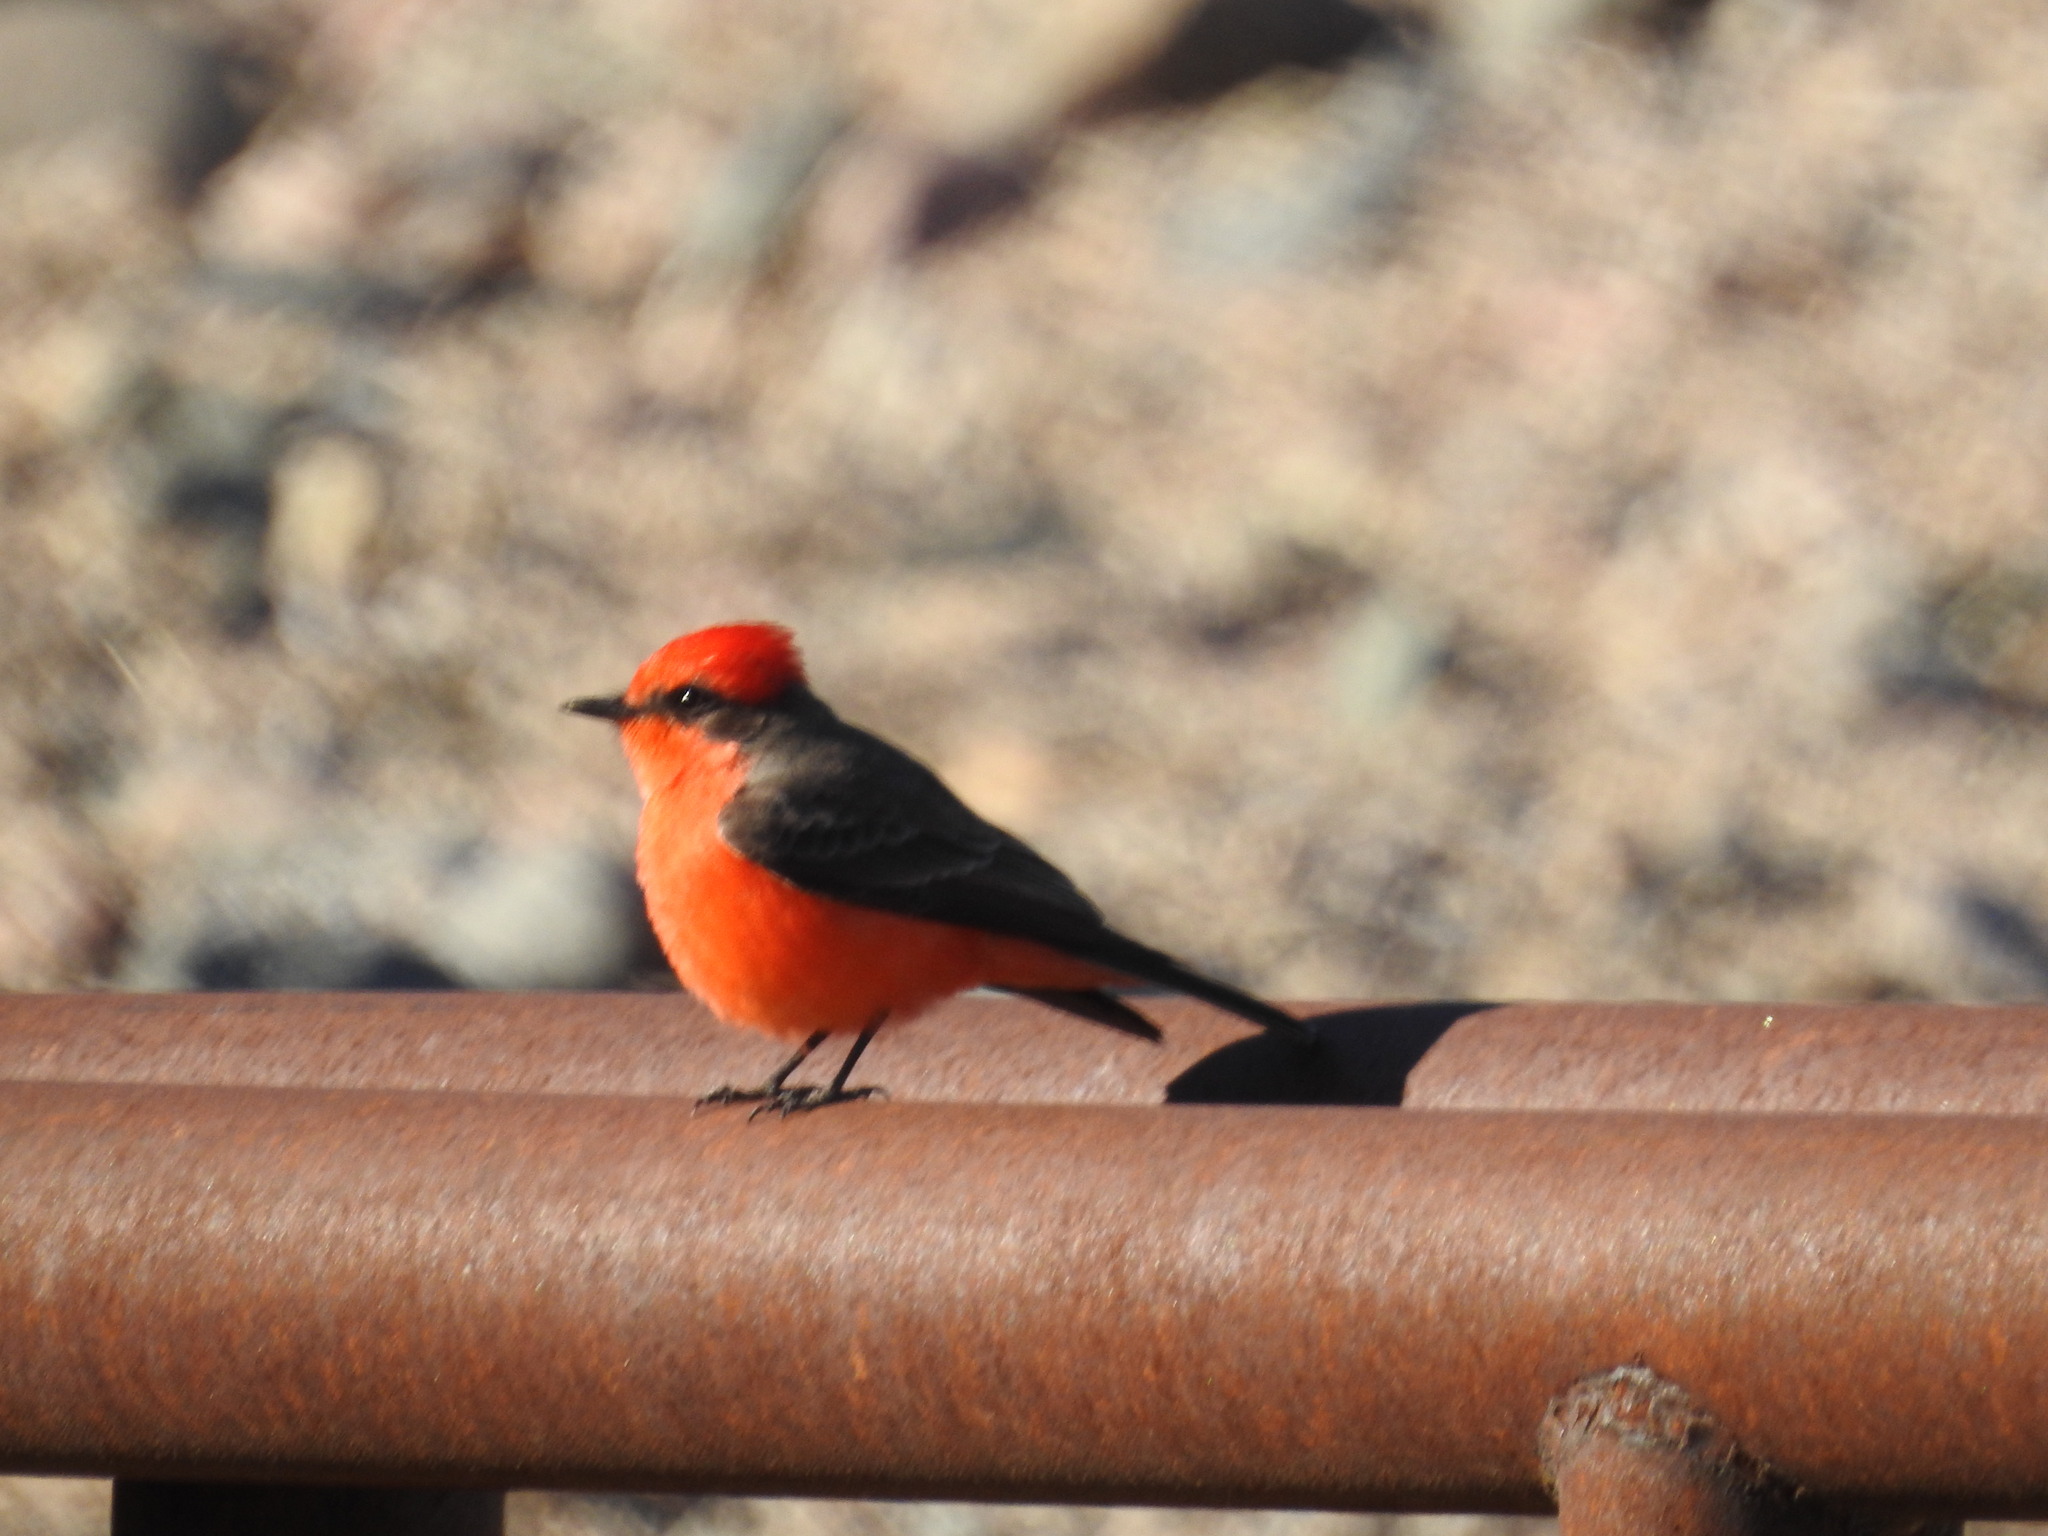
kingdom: Animalia
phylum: Chordata
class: Aves
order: Passeriformes
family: Tyrannidae
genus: Pyrocephalus
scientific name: Pyrocephalus rubinus
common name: Vermilion flycatcher
